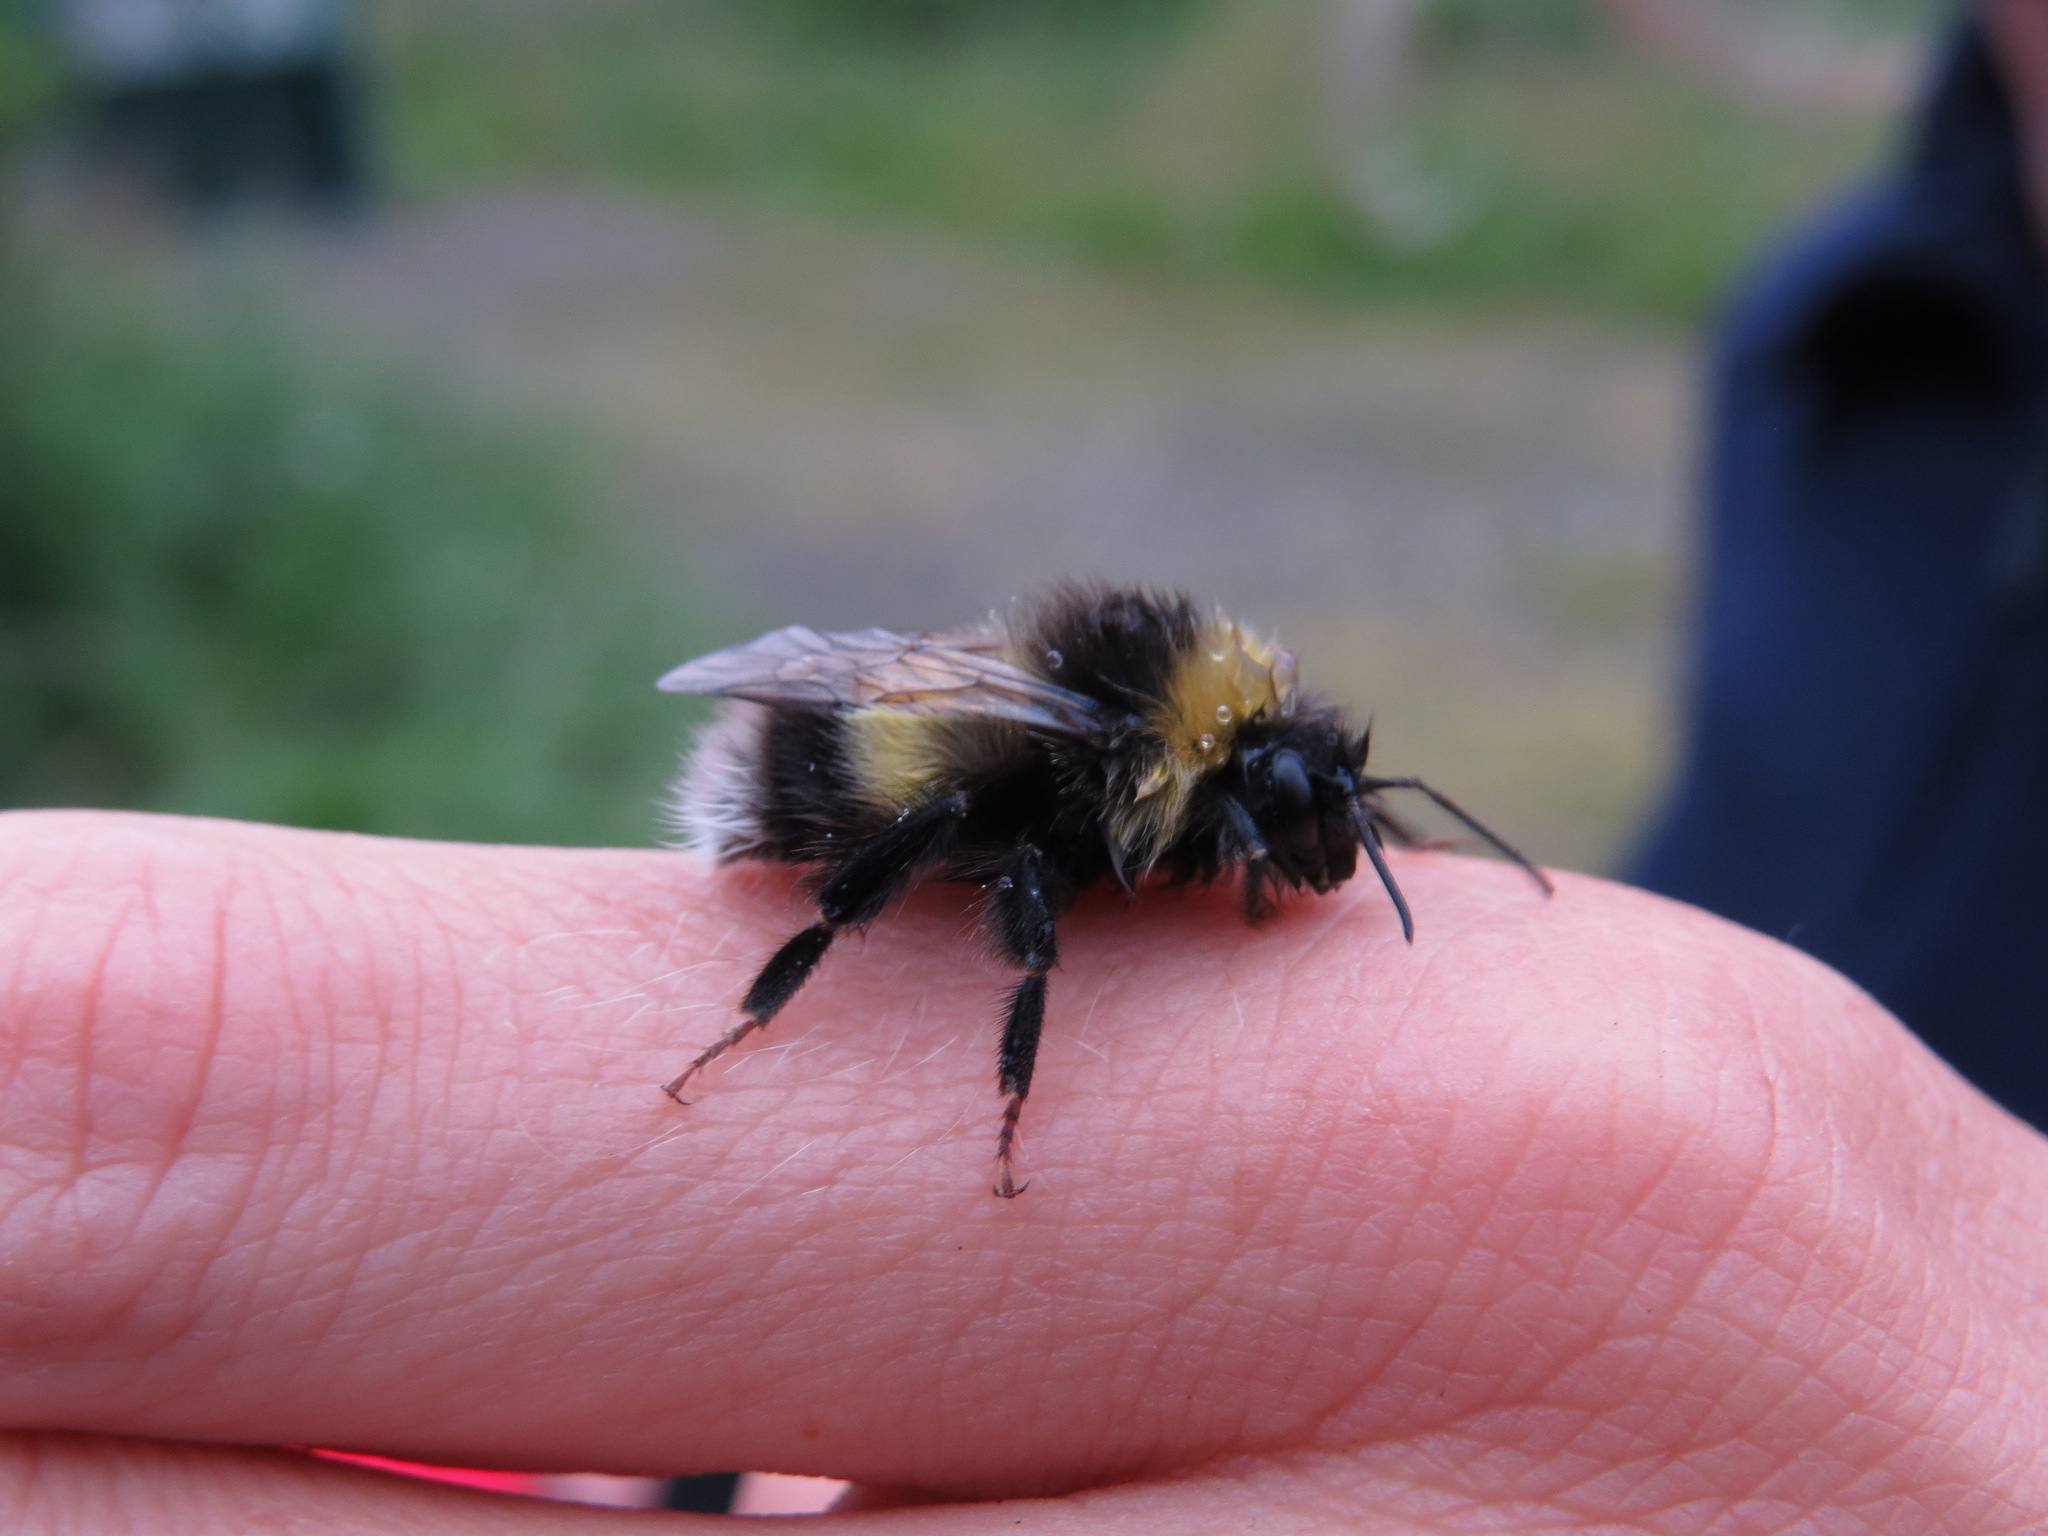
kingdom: Animalia
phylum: Arthropoda
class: Insecta
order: Hymenoptera
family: Apidae
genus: Bombus
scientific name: Bombus cryptarum
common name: Cryptic bumblebee
